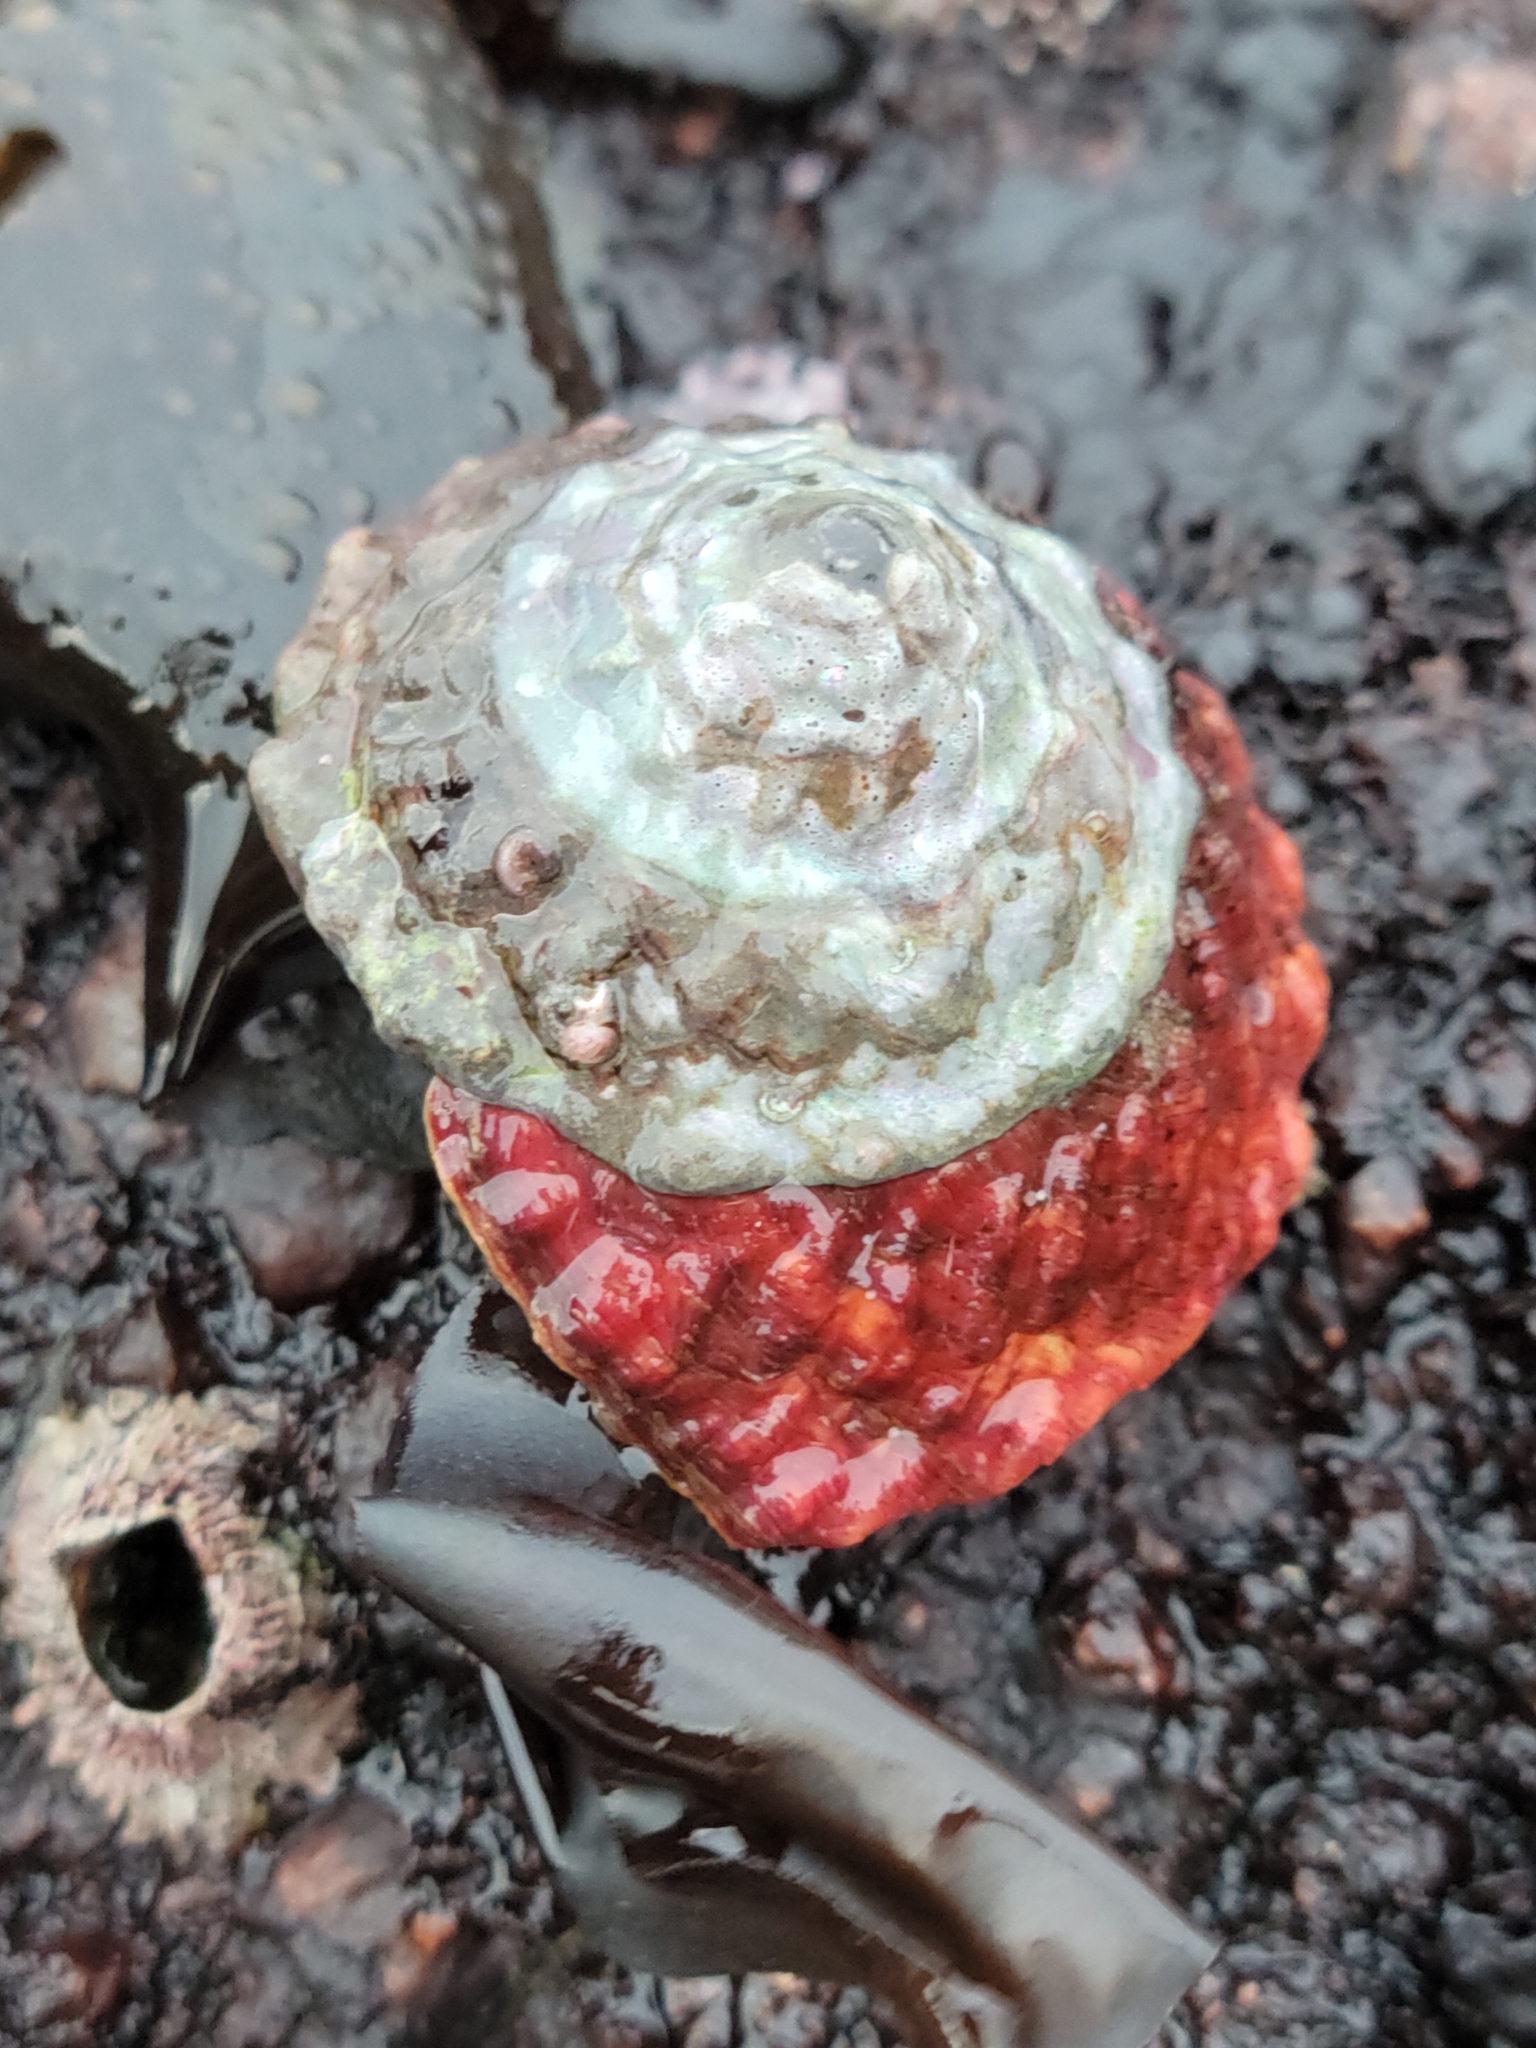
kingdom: Animalia
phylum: Mollusca
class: Gastropoda
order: Trochida
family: Turbinidae
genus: Pomaulax
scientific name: Pomaulax gibberosus
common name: Red turban
